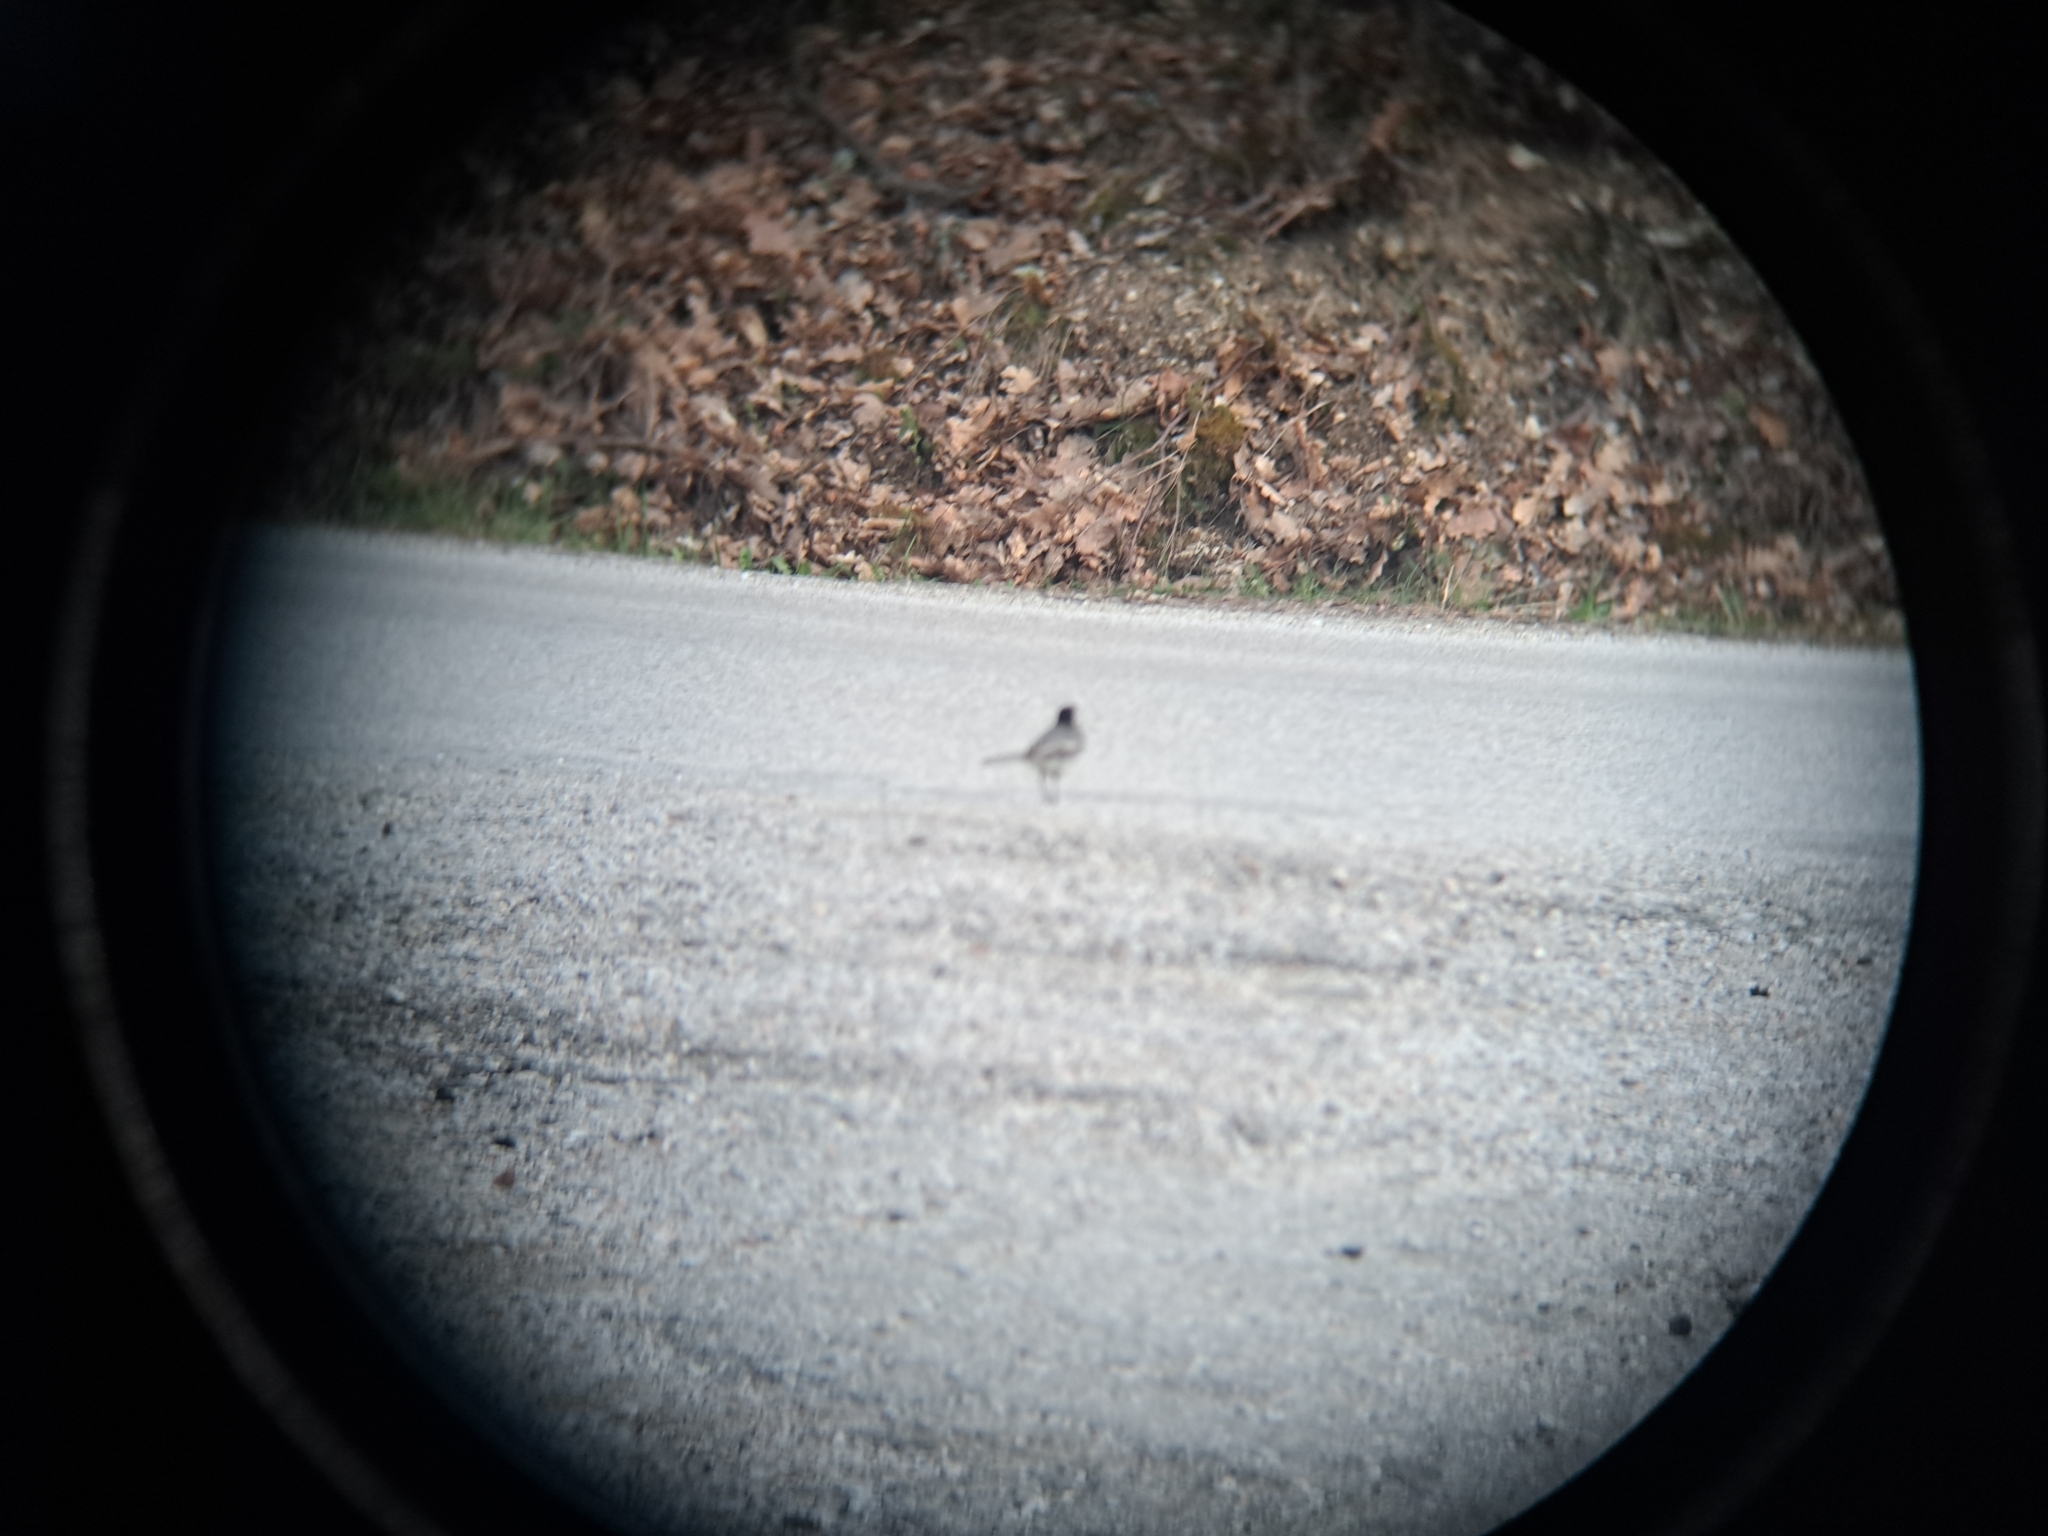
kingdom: Animalia
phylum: Chordata
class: Aves
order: Passeriformes
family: Motacillidae
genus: Motacilla
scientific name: Motacilla alba
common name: White wagtail
